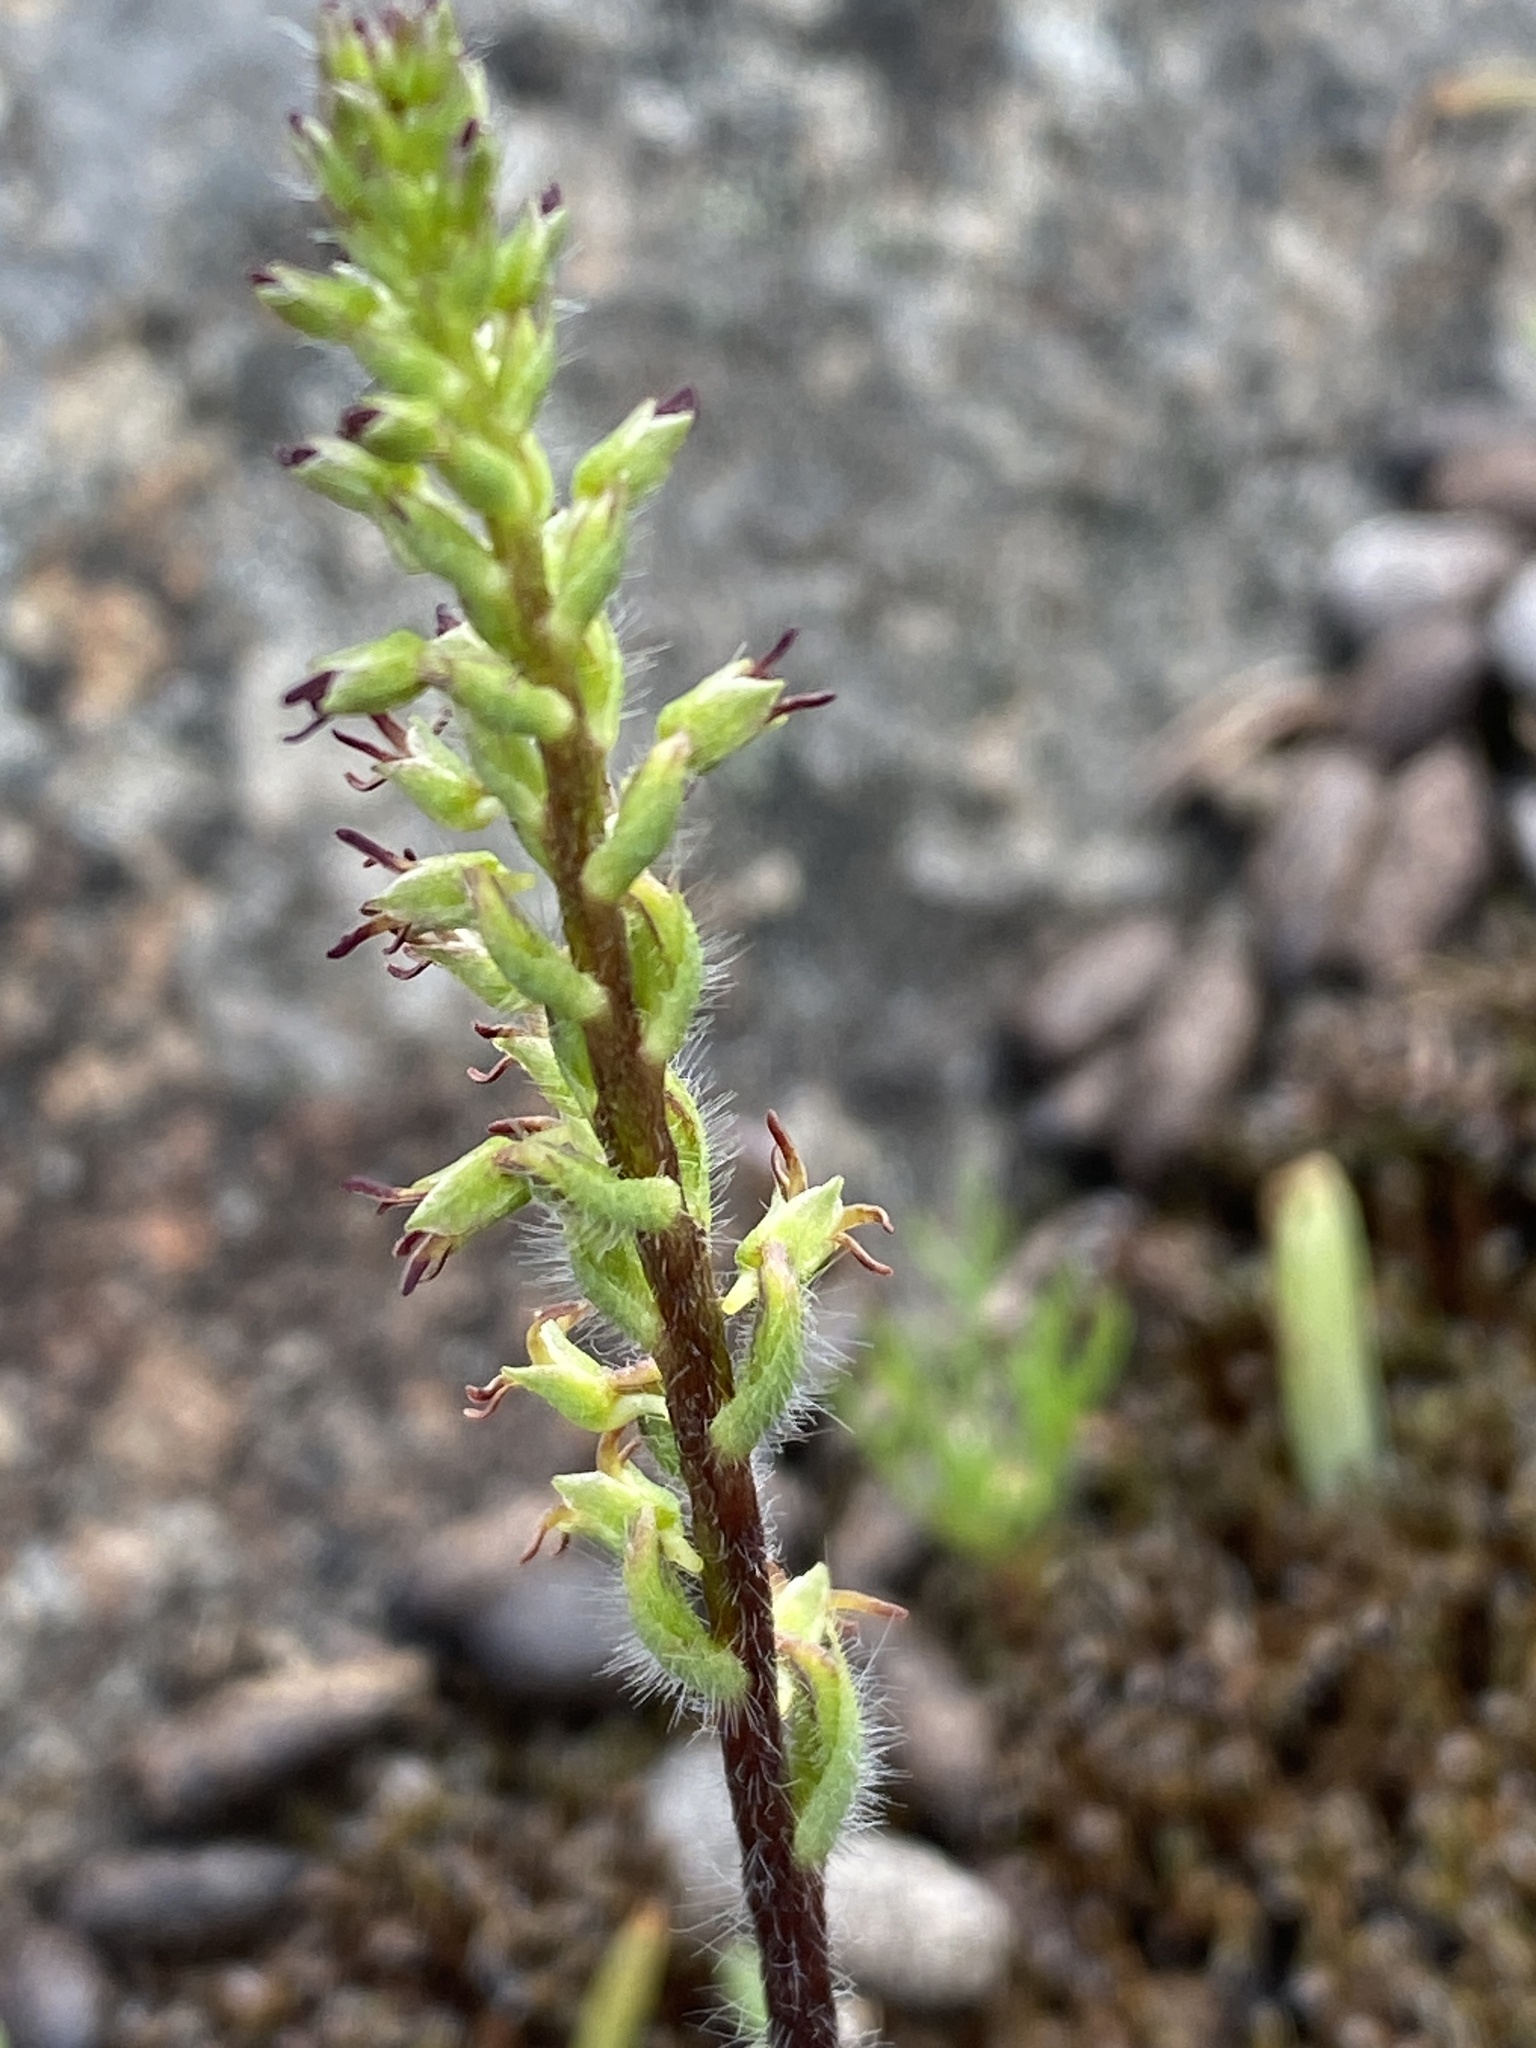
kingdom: Plantae
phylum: Tracheophyta
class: Liliopsida
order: Asparagales
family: Orchidaceae
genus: Holothrix
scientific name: Holothrix villosa
